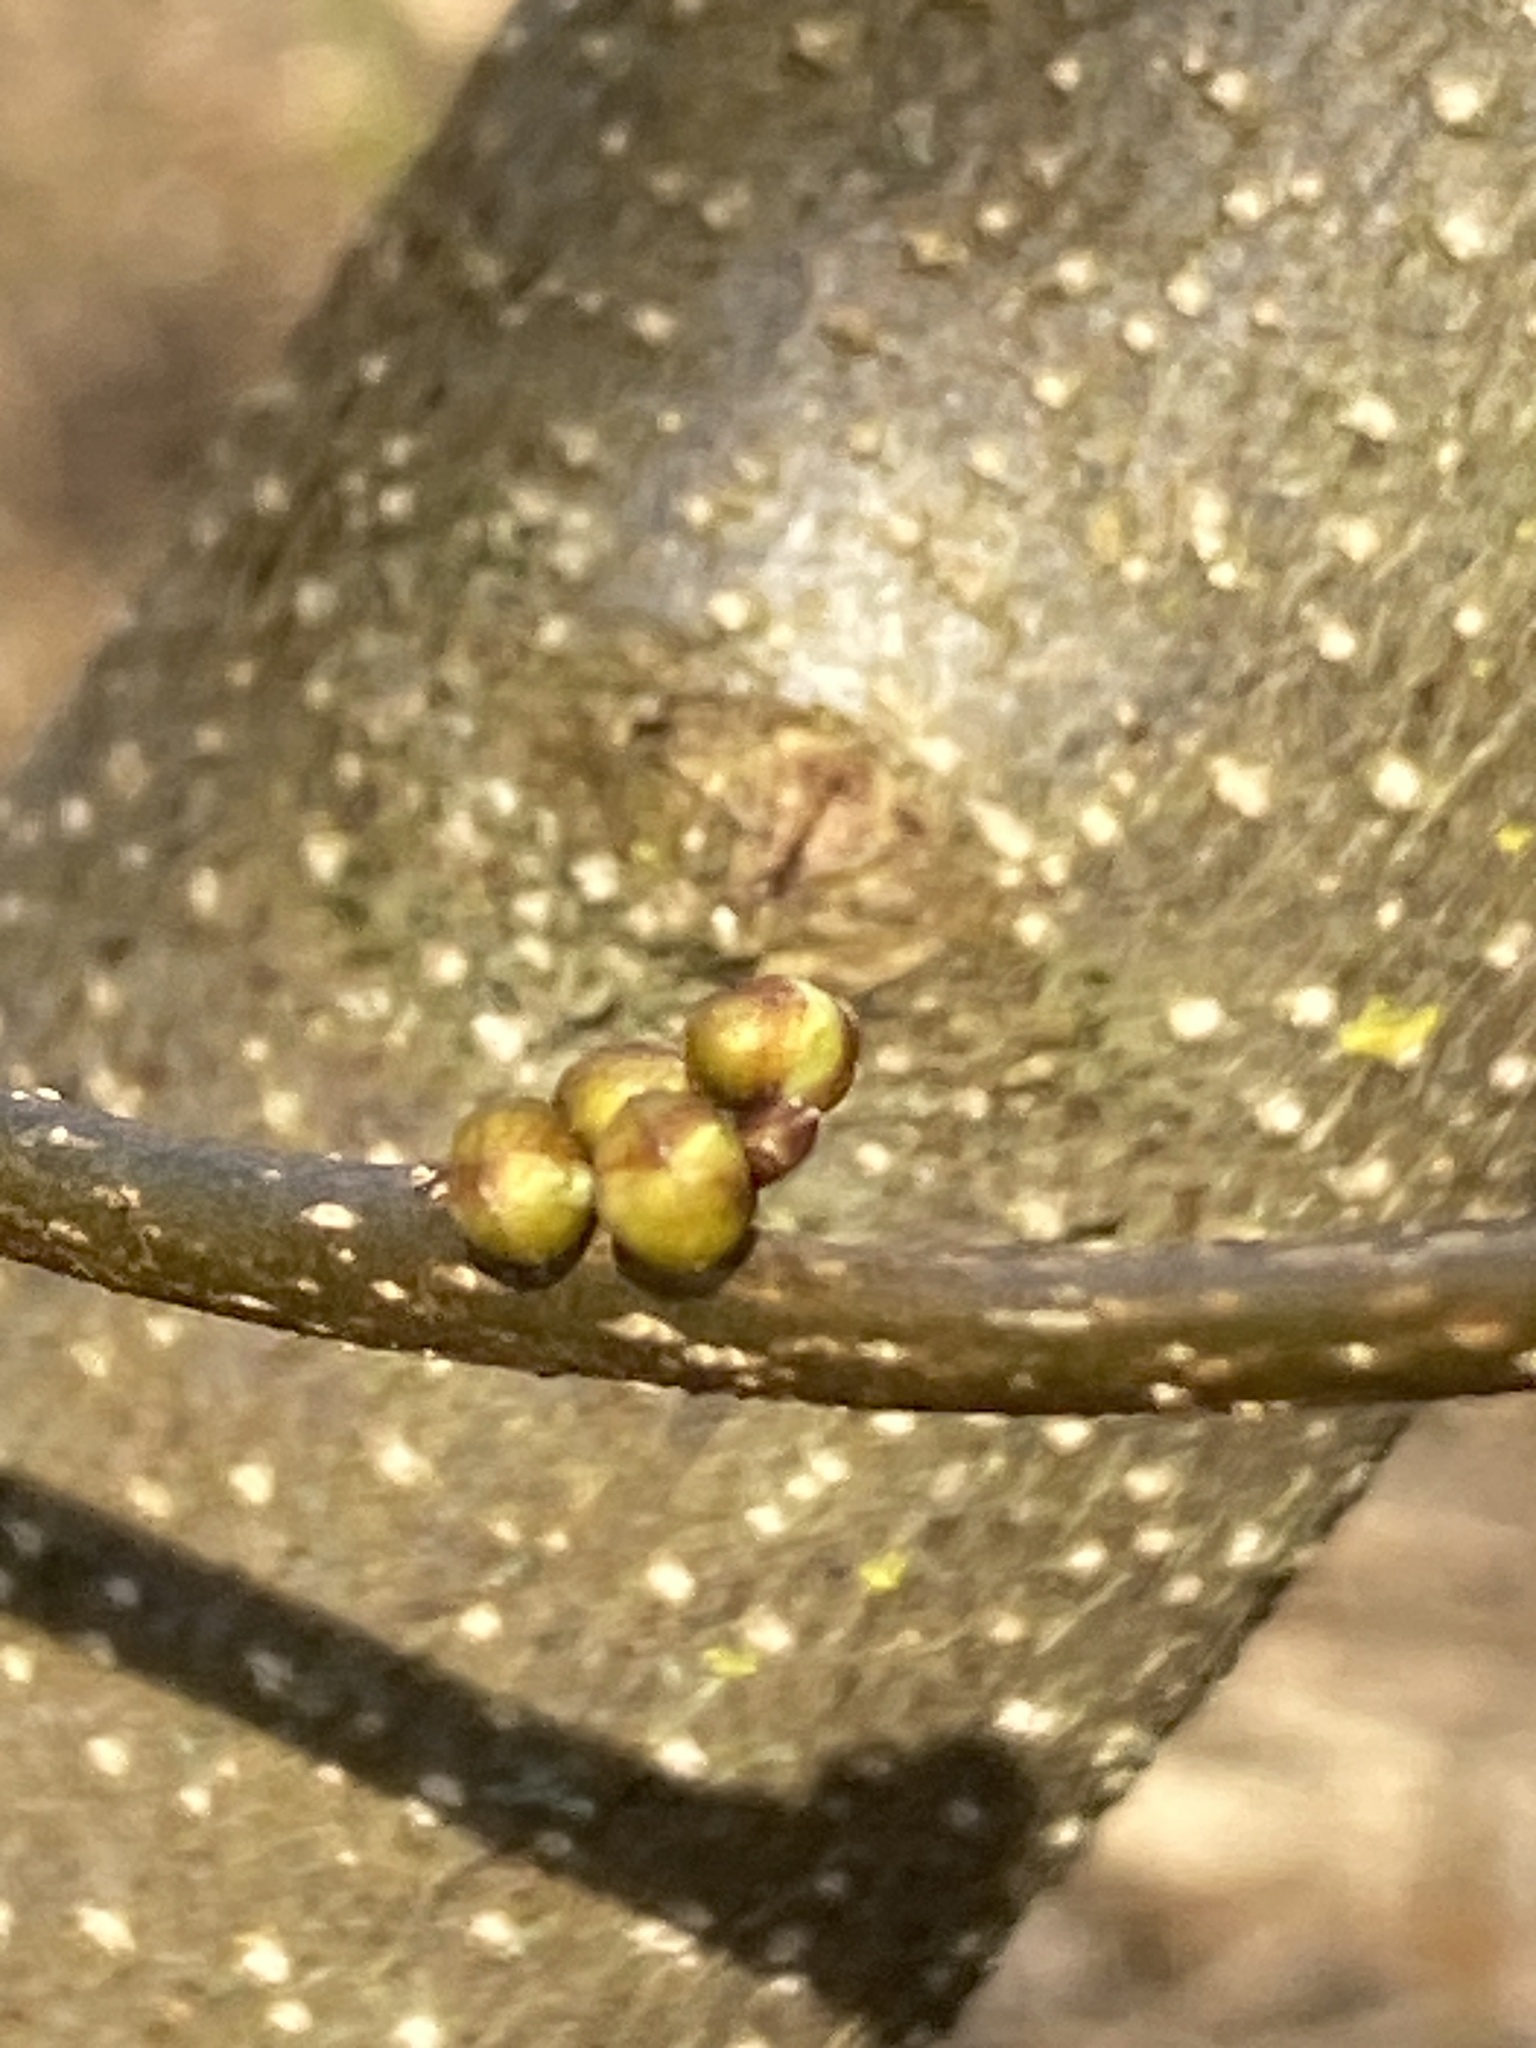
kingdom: Plantae
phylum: Tracheophyta
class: Magnoliopsida
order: Laurales
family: Lauraceae
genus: Lindera
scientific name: Lindera benzoin
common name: Spicebush
